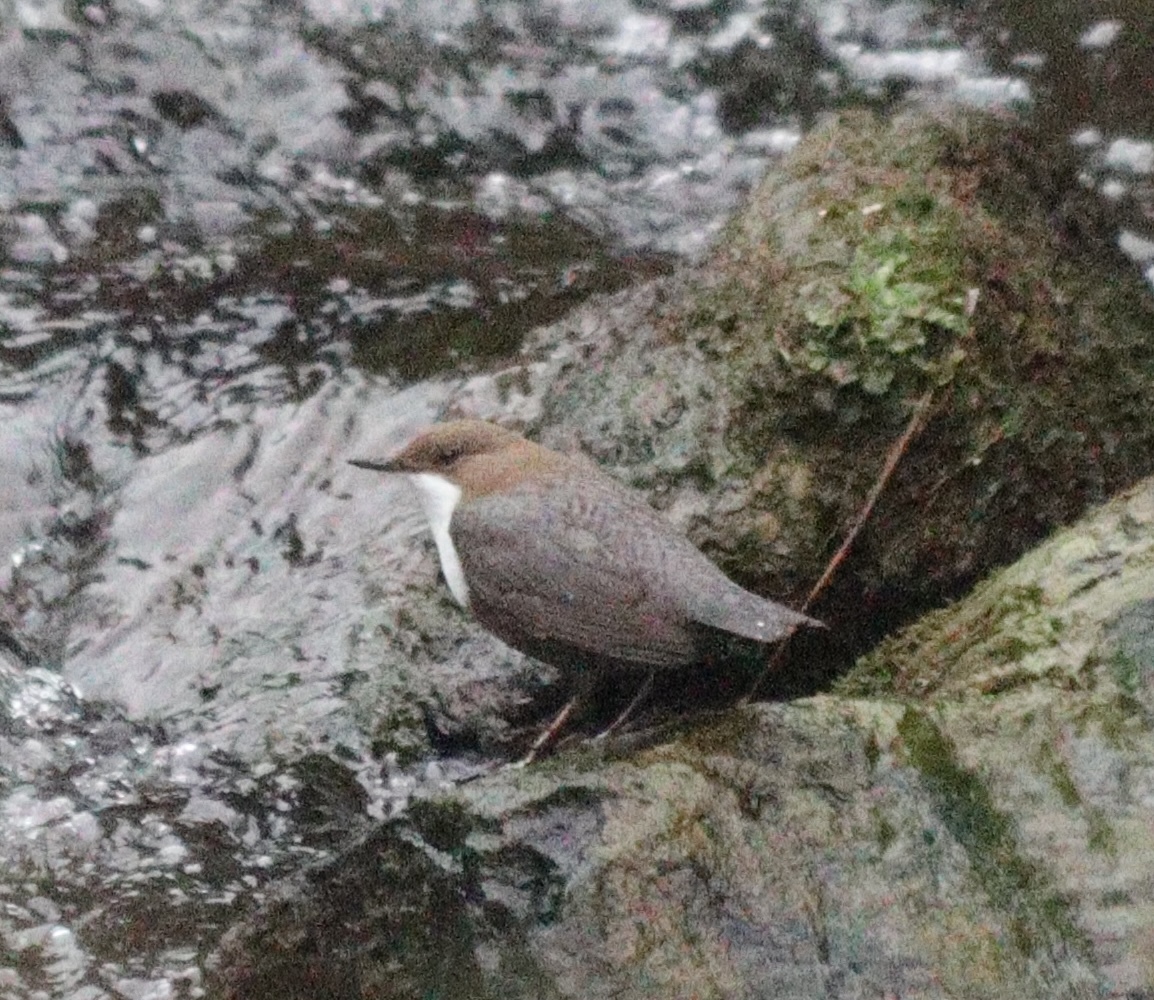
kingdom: Animalia
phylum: Chordata
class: Aves
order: Passeriformes
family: Cinclidae
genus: Cinclus
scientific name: Cinclus cinclus
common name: White-throated dipper
